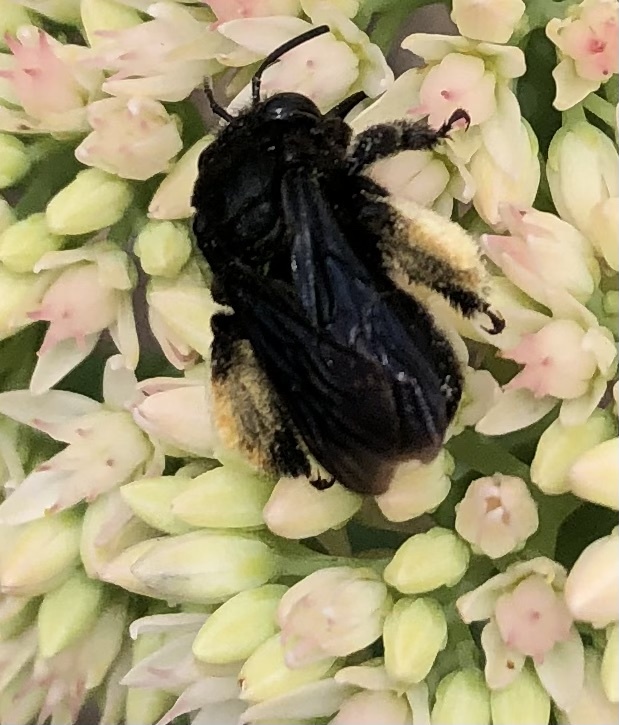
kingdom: Animalia
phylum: Arthropoda
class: Insecta
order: Hymenoptera
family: Apidae
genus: Melissodes
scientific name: Melissodes bimaculatus
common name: Two-spotted long-horned bee
